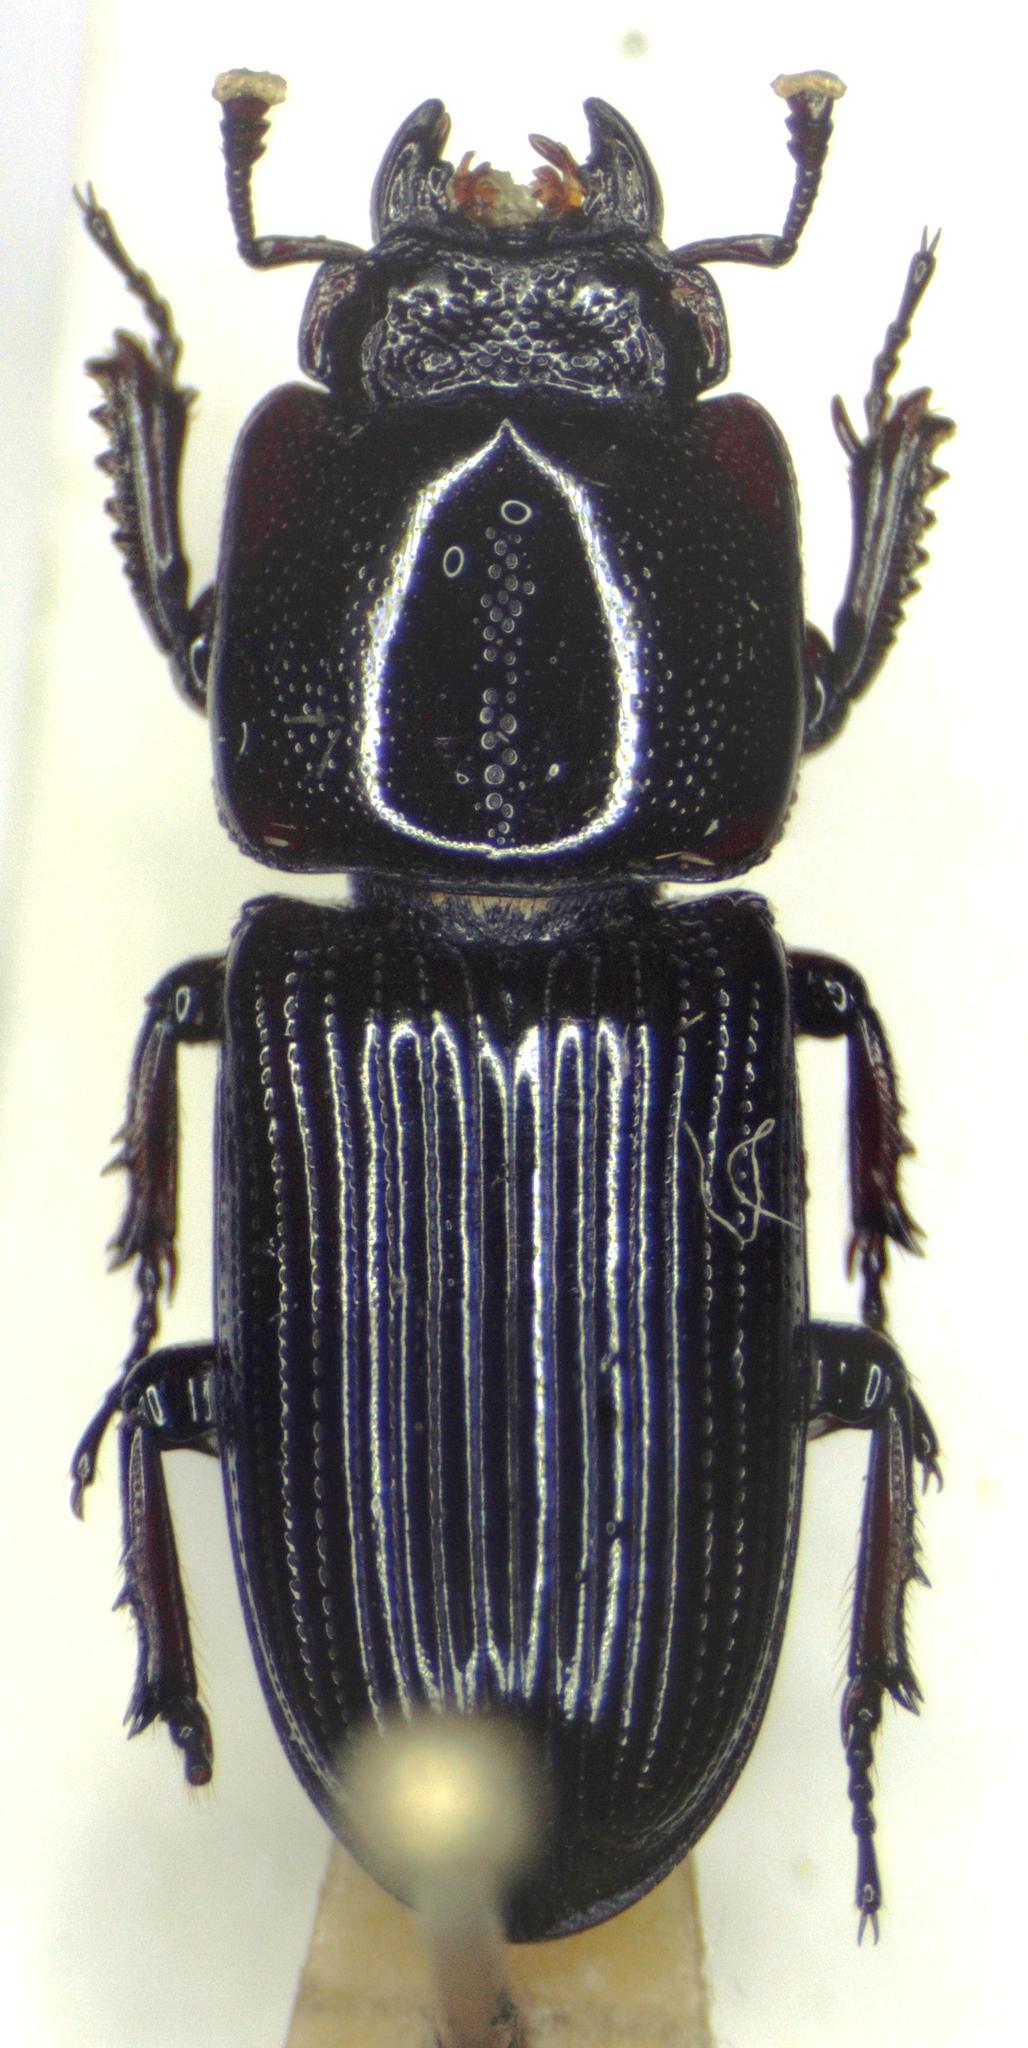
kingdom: Animalia
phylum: Arthropoda
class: Insecta
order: Coleoptera
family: Lucanidae
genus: Figulus
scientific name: Figulus punctatus
